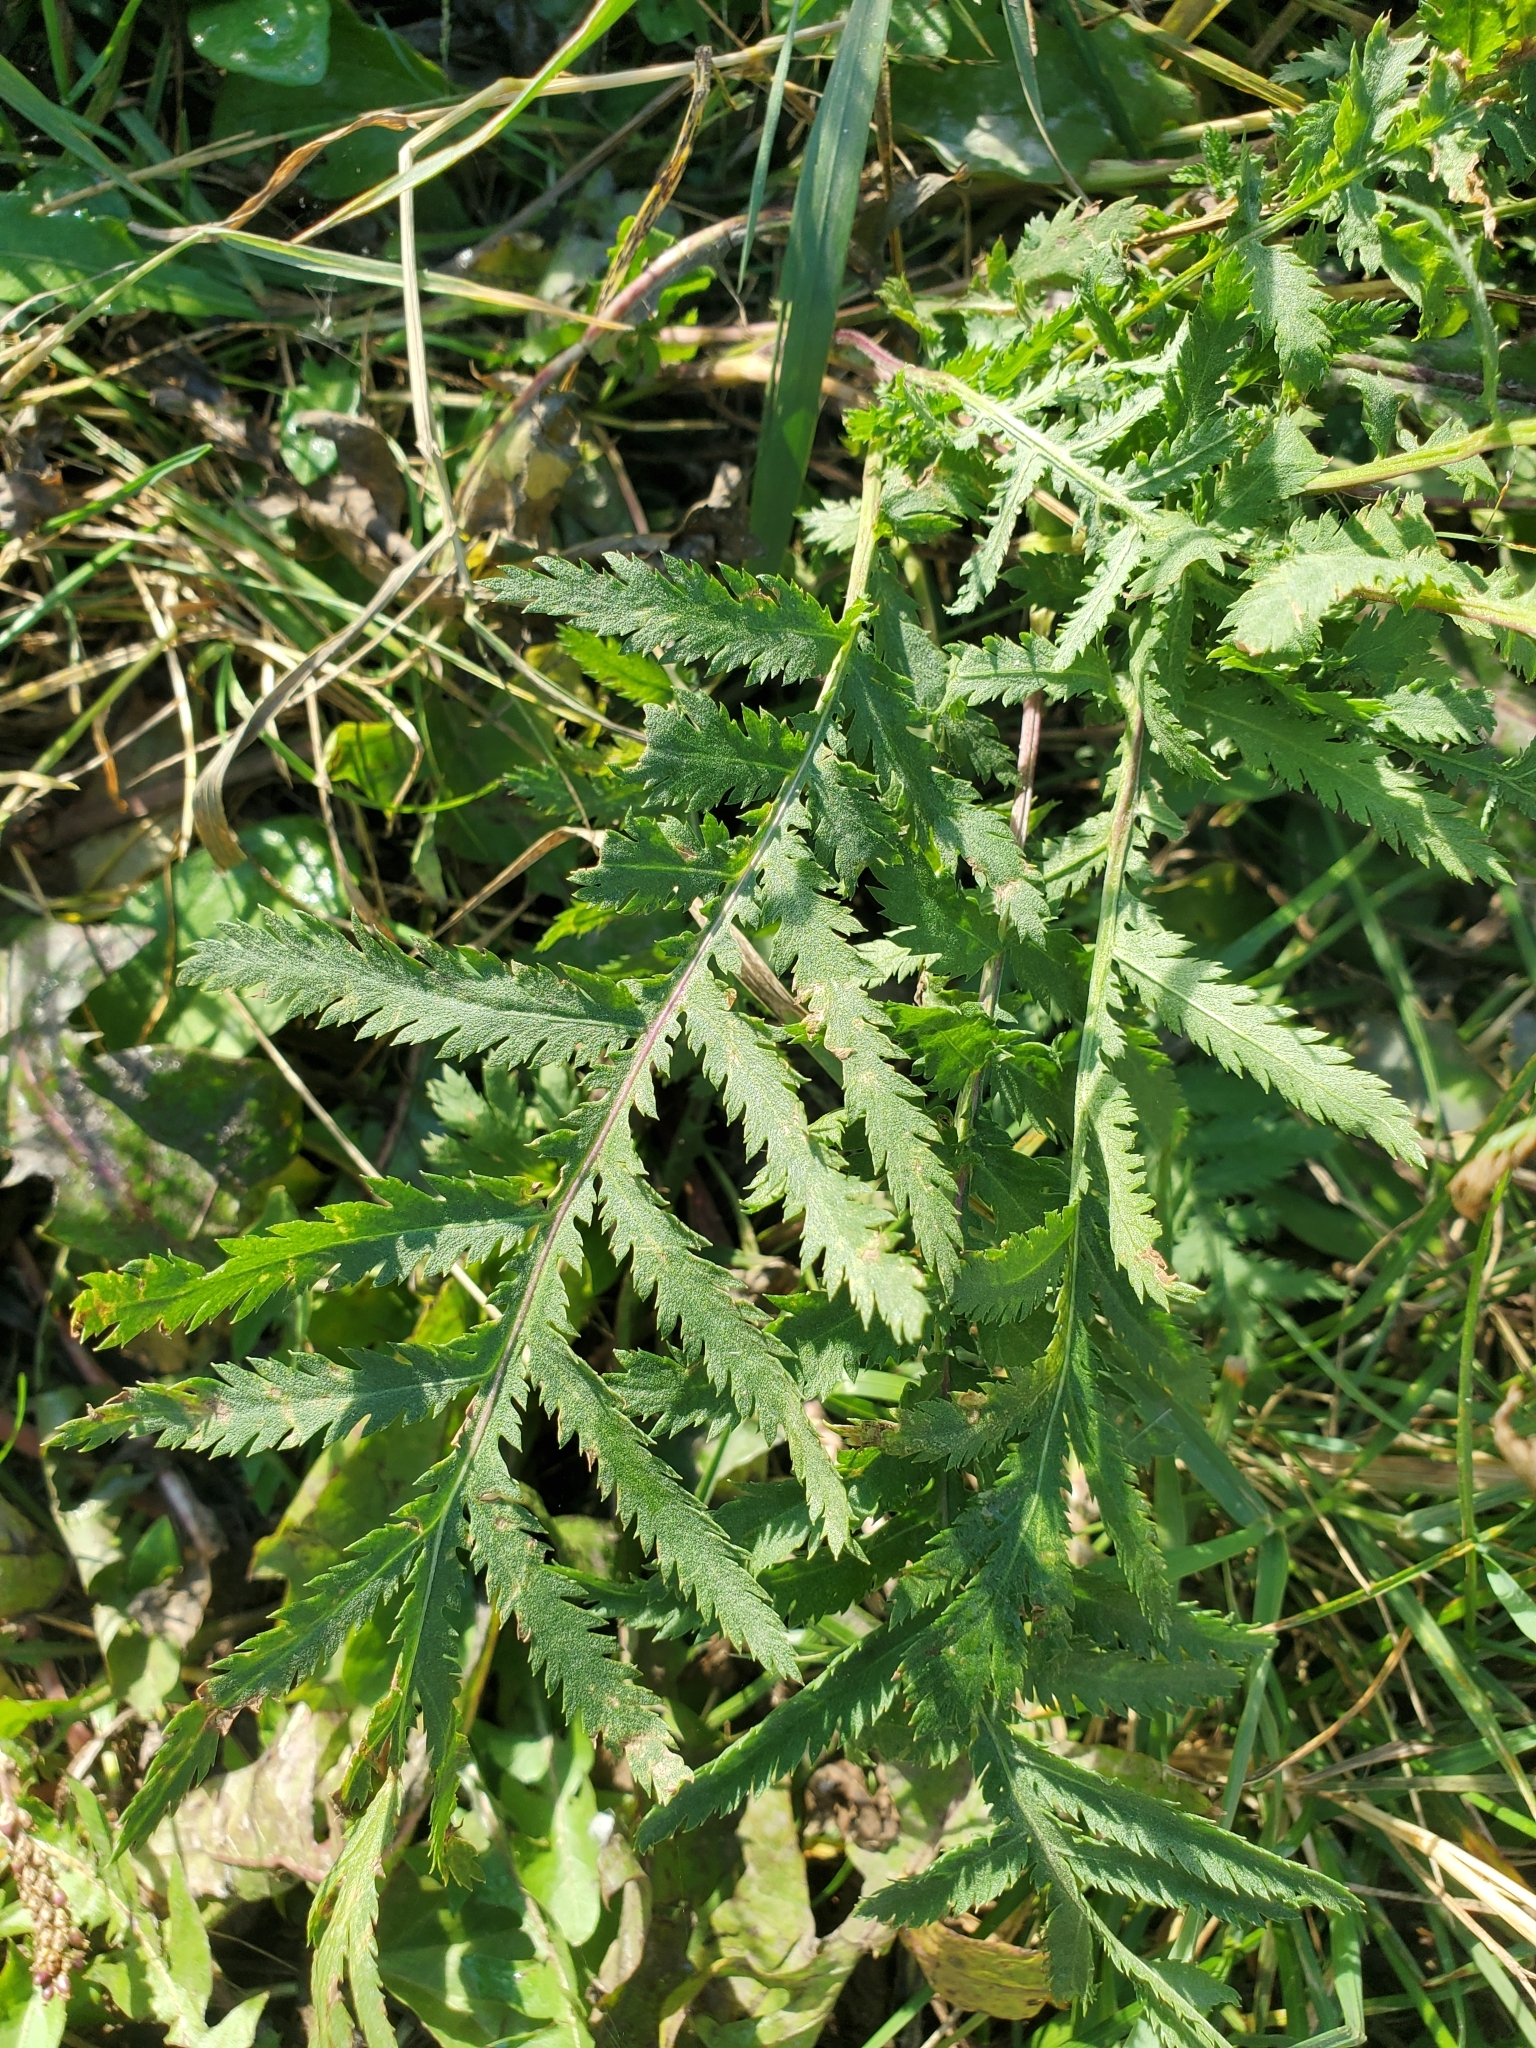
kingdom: Plantae
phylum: Tracheophyta
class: Magnoliopsida
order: Asterales
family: Asteraceae
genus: Tanacetum
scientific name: Tanacetum vulgare
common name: Common tansy
